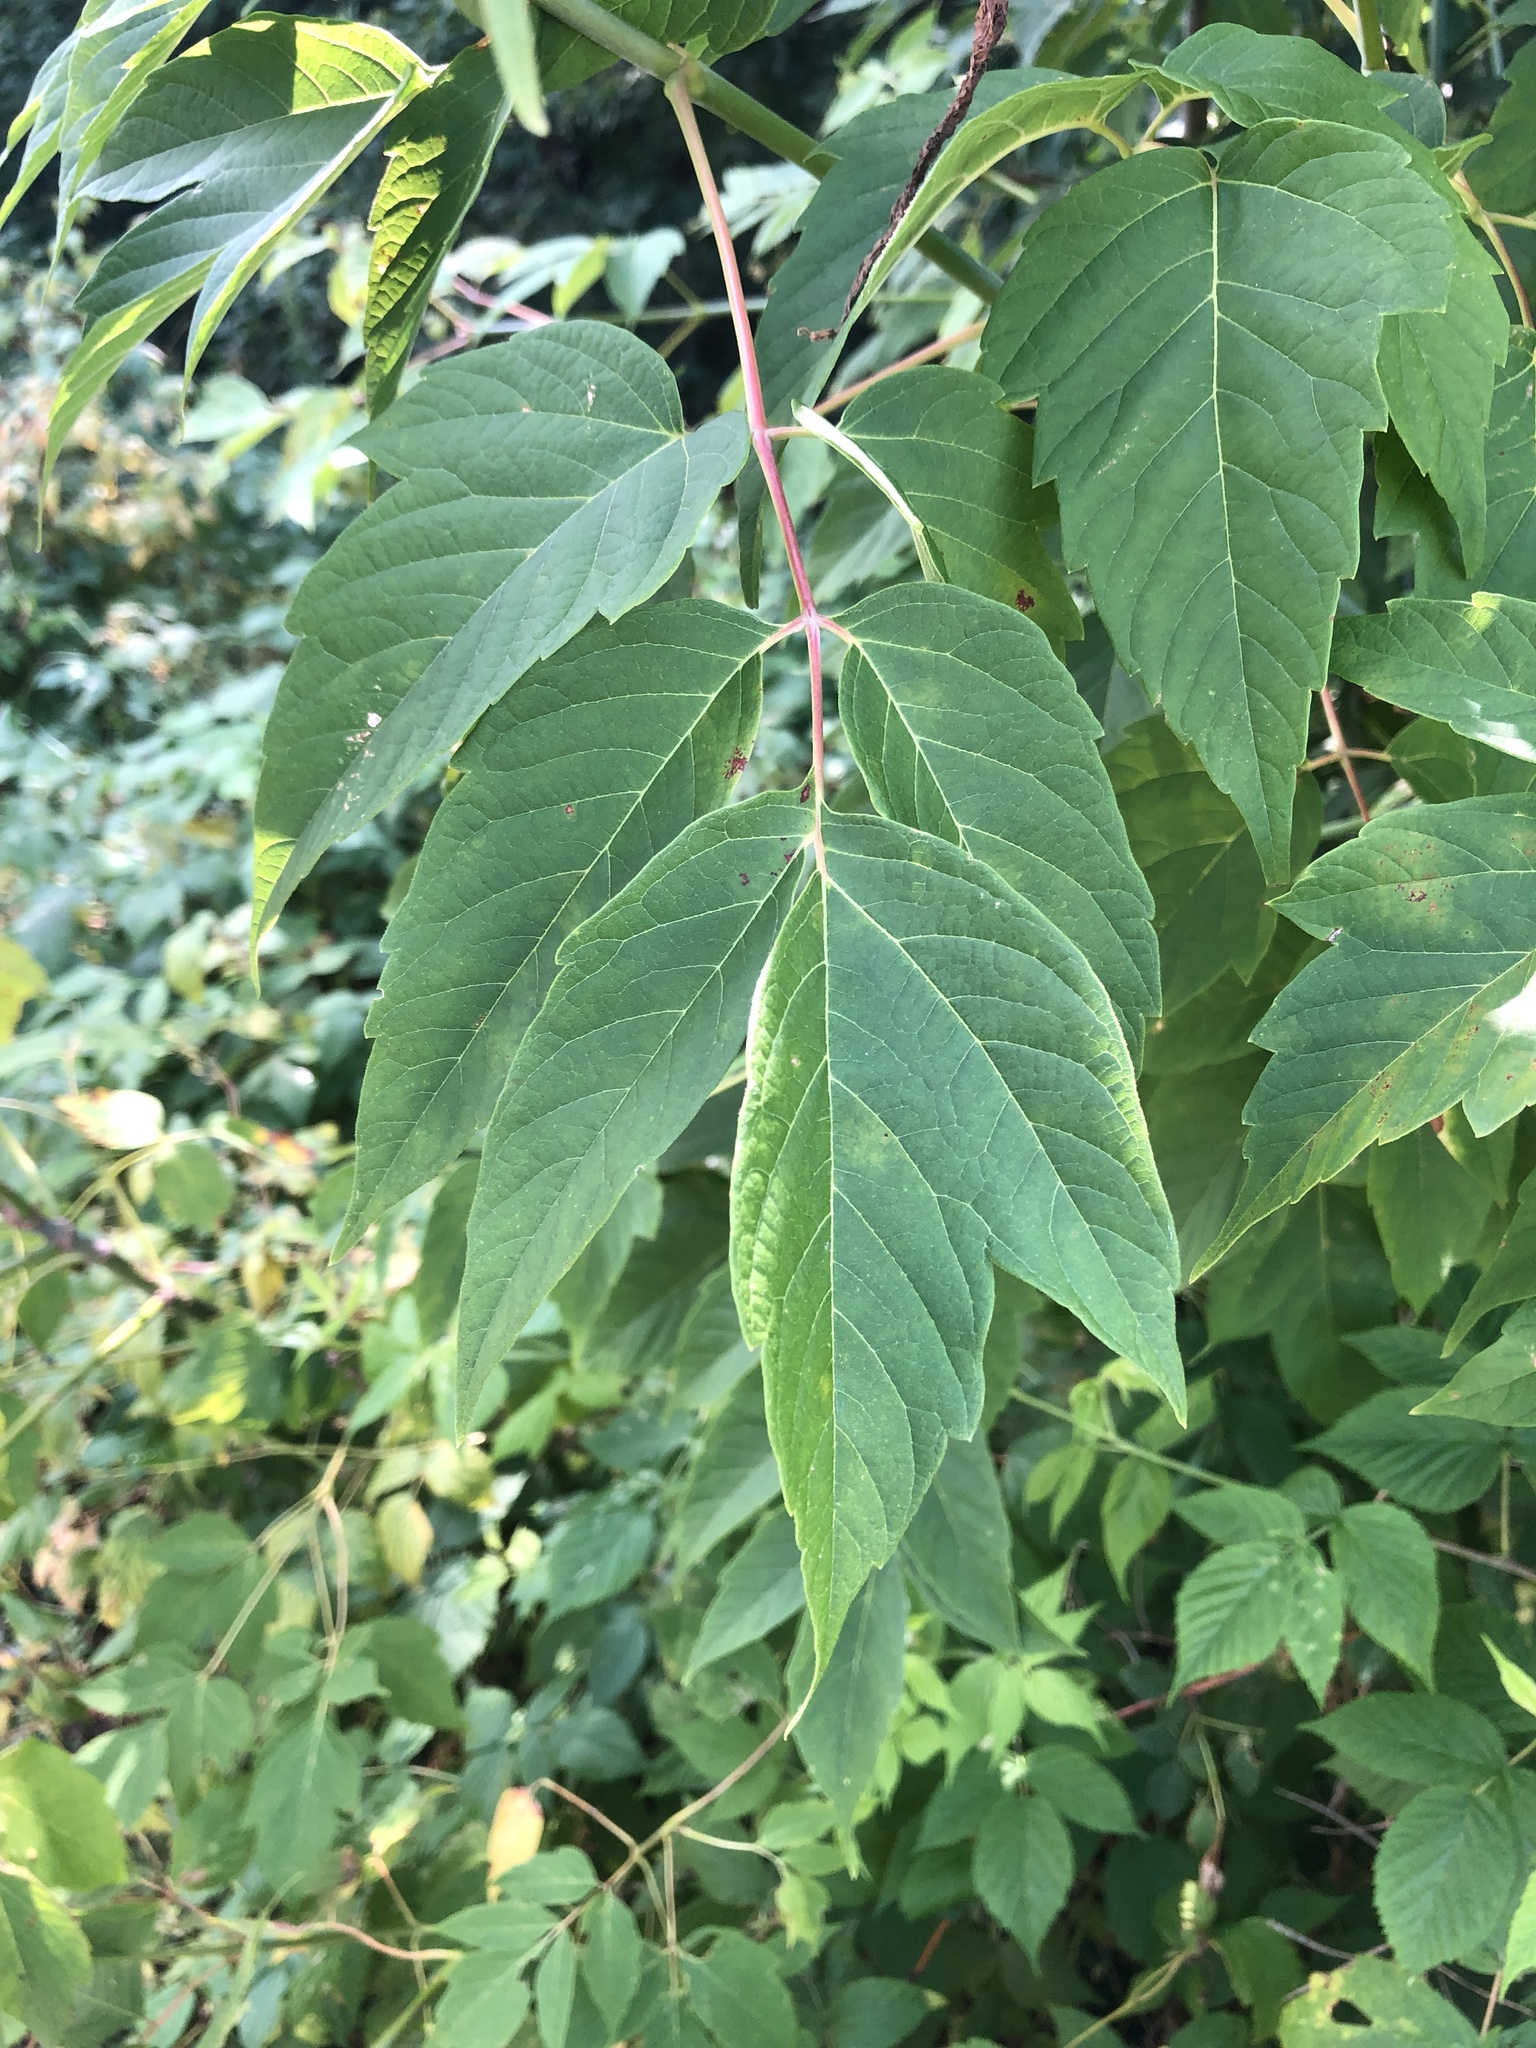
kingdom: Plantae
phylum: Tracheophyta
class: Magnoliopsida
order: Sapindales
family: Sapindaceae
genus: Acer
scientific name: Acer negundo
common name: Ashleaf maple
